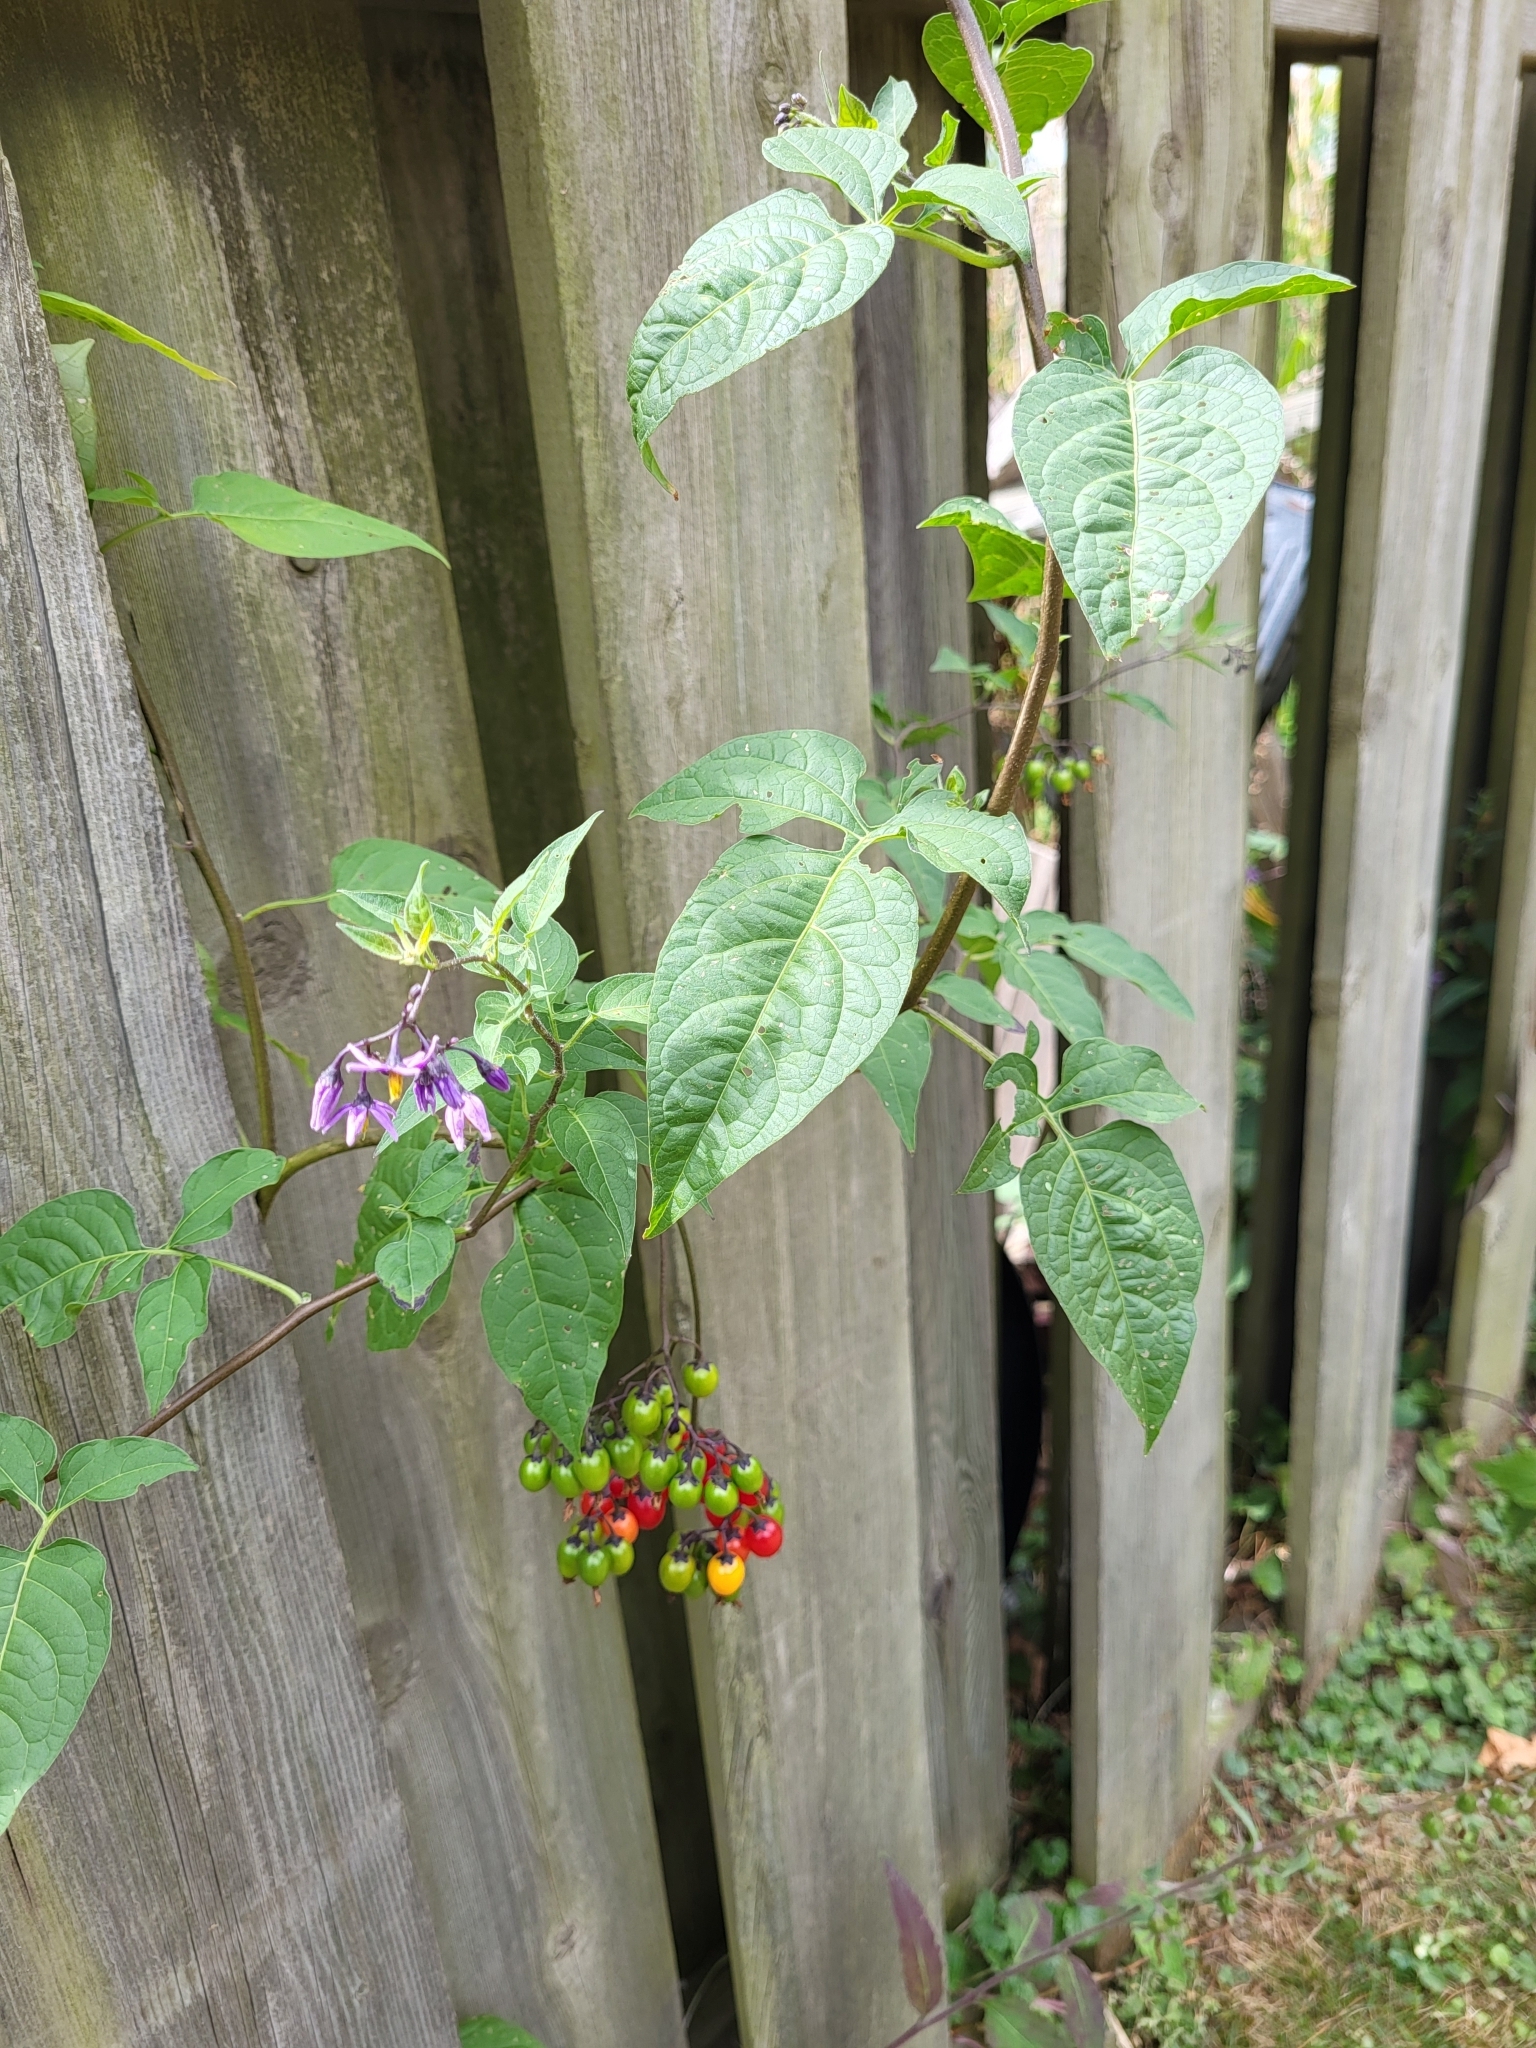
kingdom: Plantae
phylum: Tracheophyta
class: Magnoliopsida
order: Solanales
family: Solanaceae
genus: Solanum
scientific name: Solanum dulcamara
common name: Climbing nightshade
